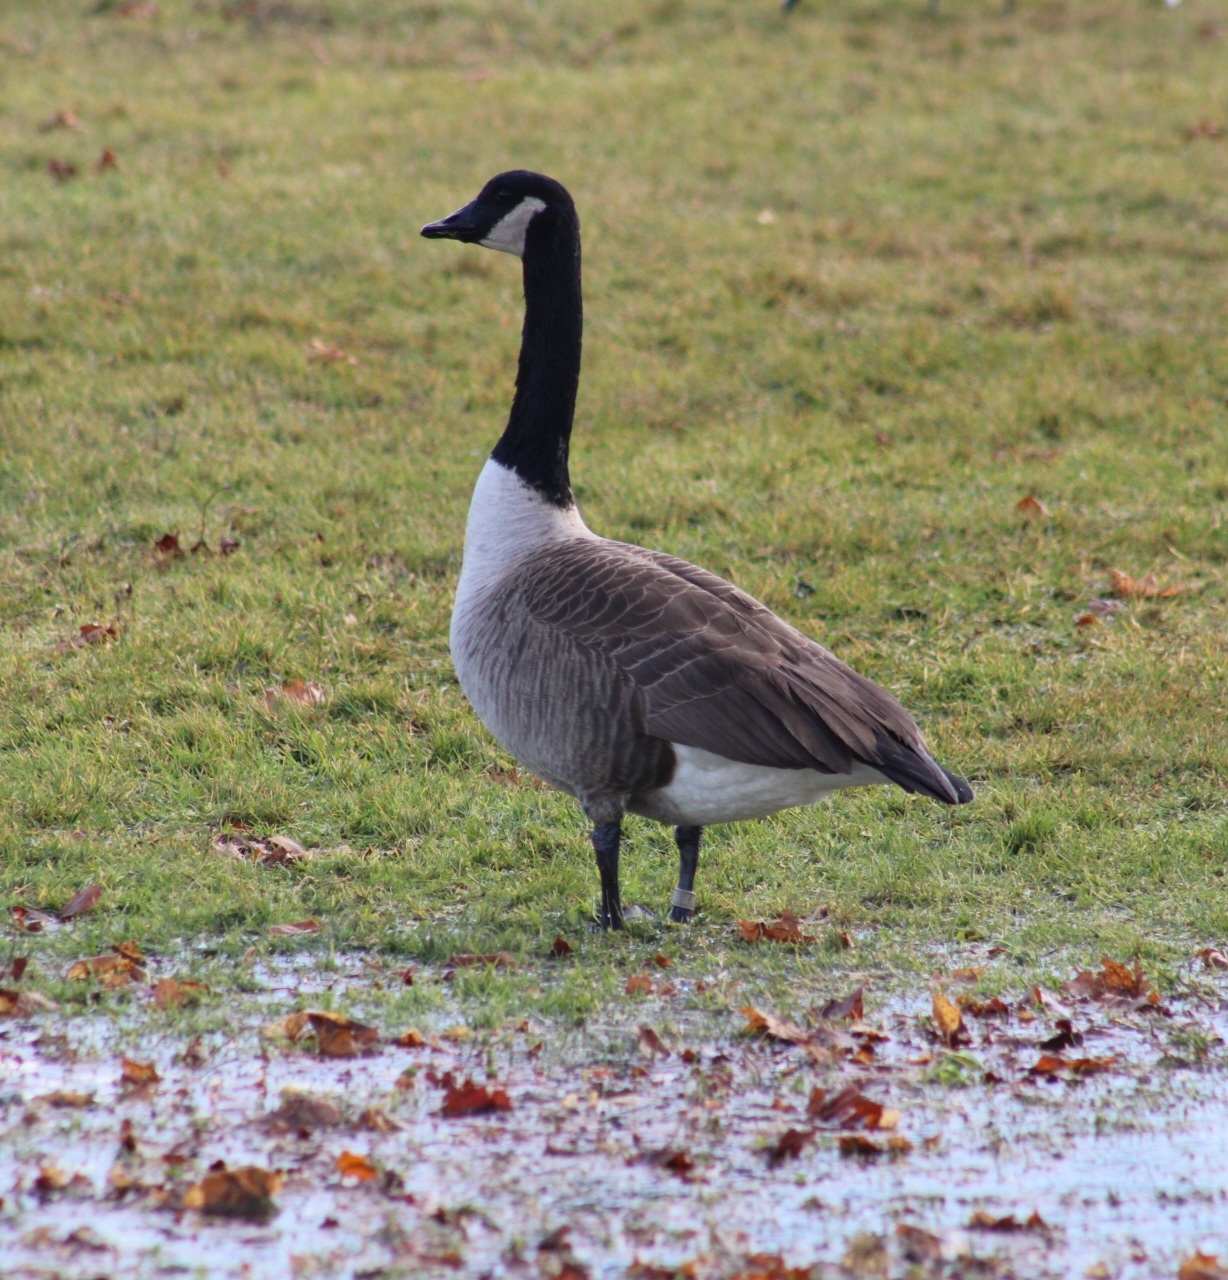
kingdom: Animalia
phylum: Chordata
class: Aves
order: Anseriformes
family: Anatidae
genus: Branta
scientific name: Branta canadensis
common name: Canada goose
